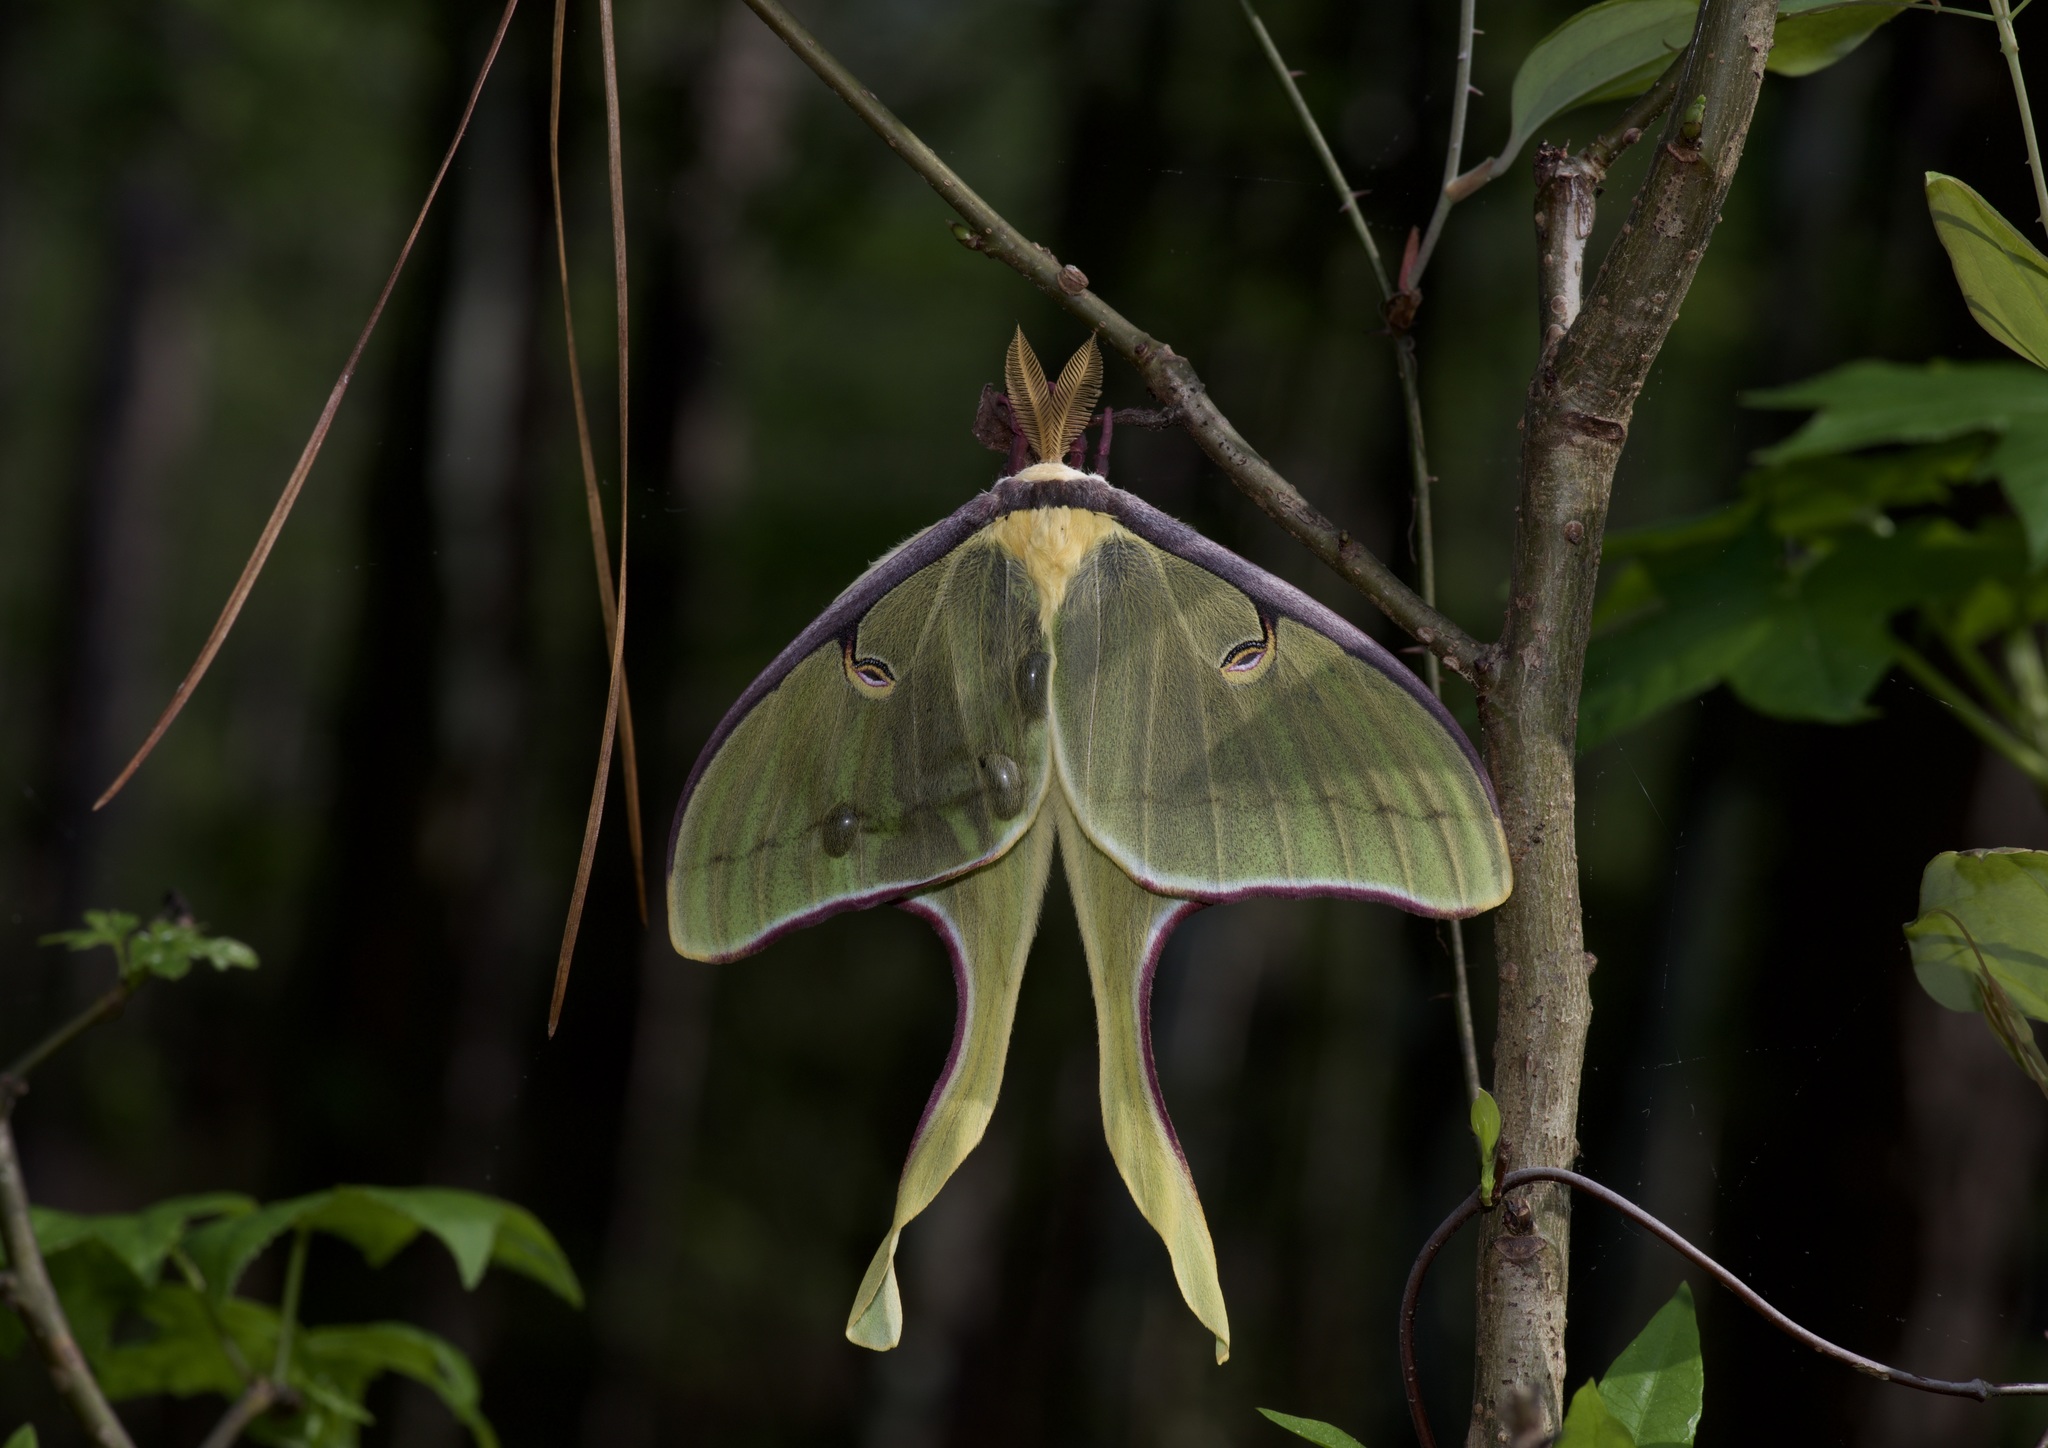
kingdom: Animalia
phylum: Arthropoda
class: Insecta
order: Lepidoptera
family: Saturniidae
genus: Actias
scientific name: Actias luna
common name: Luna moth
